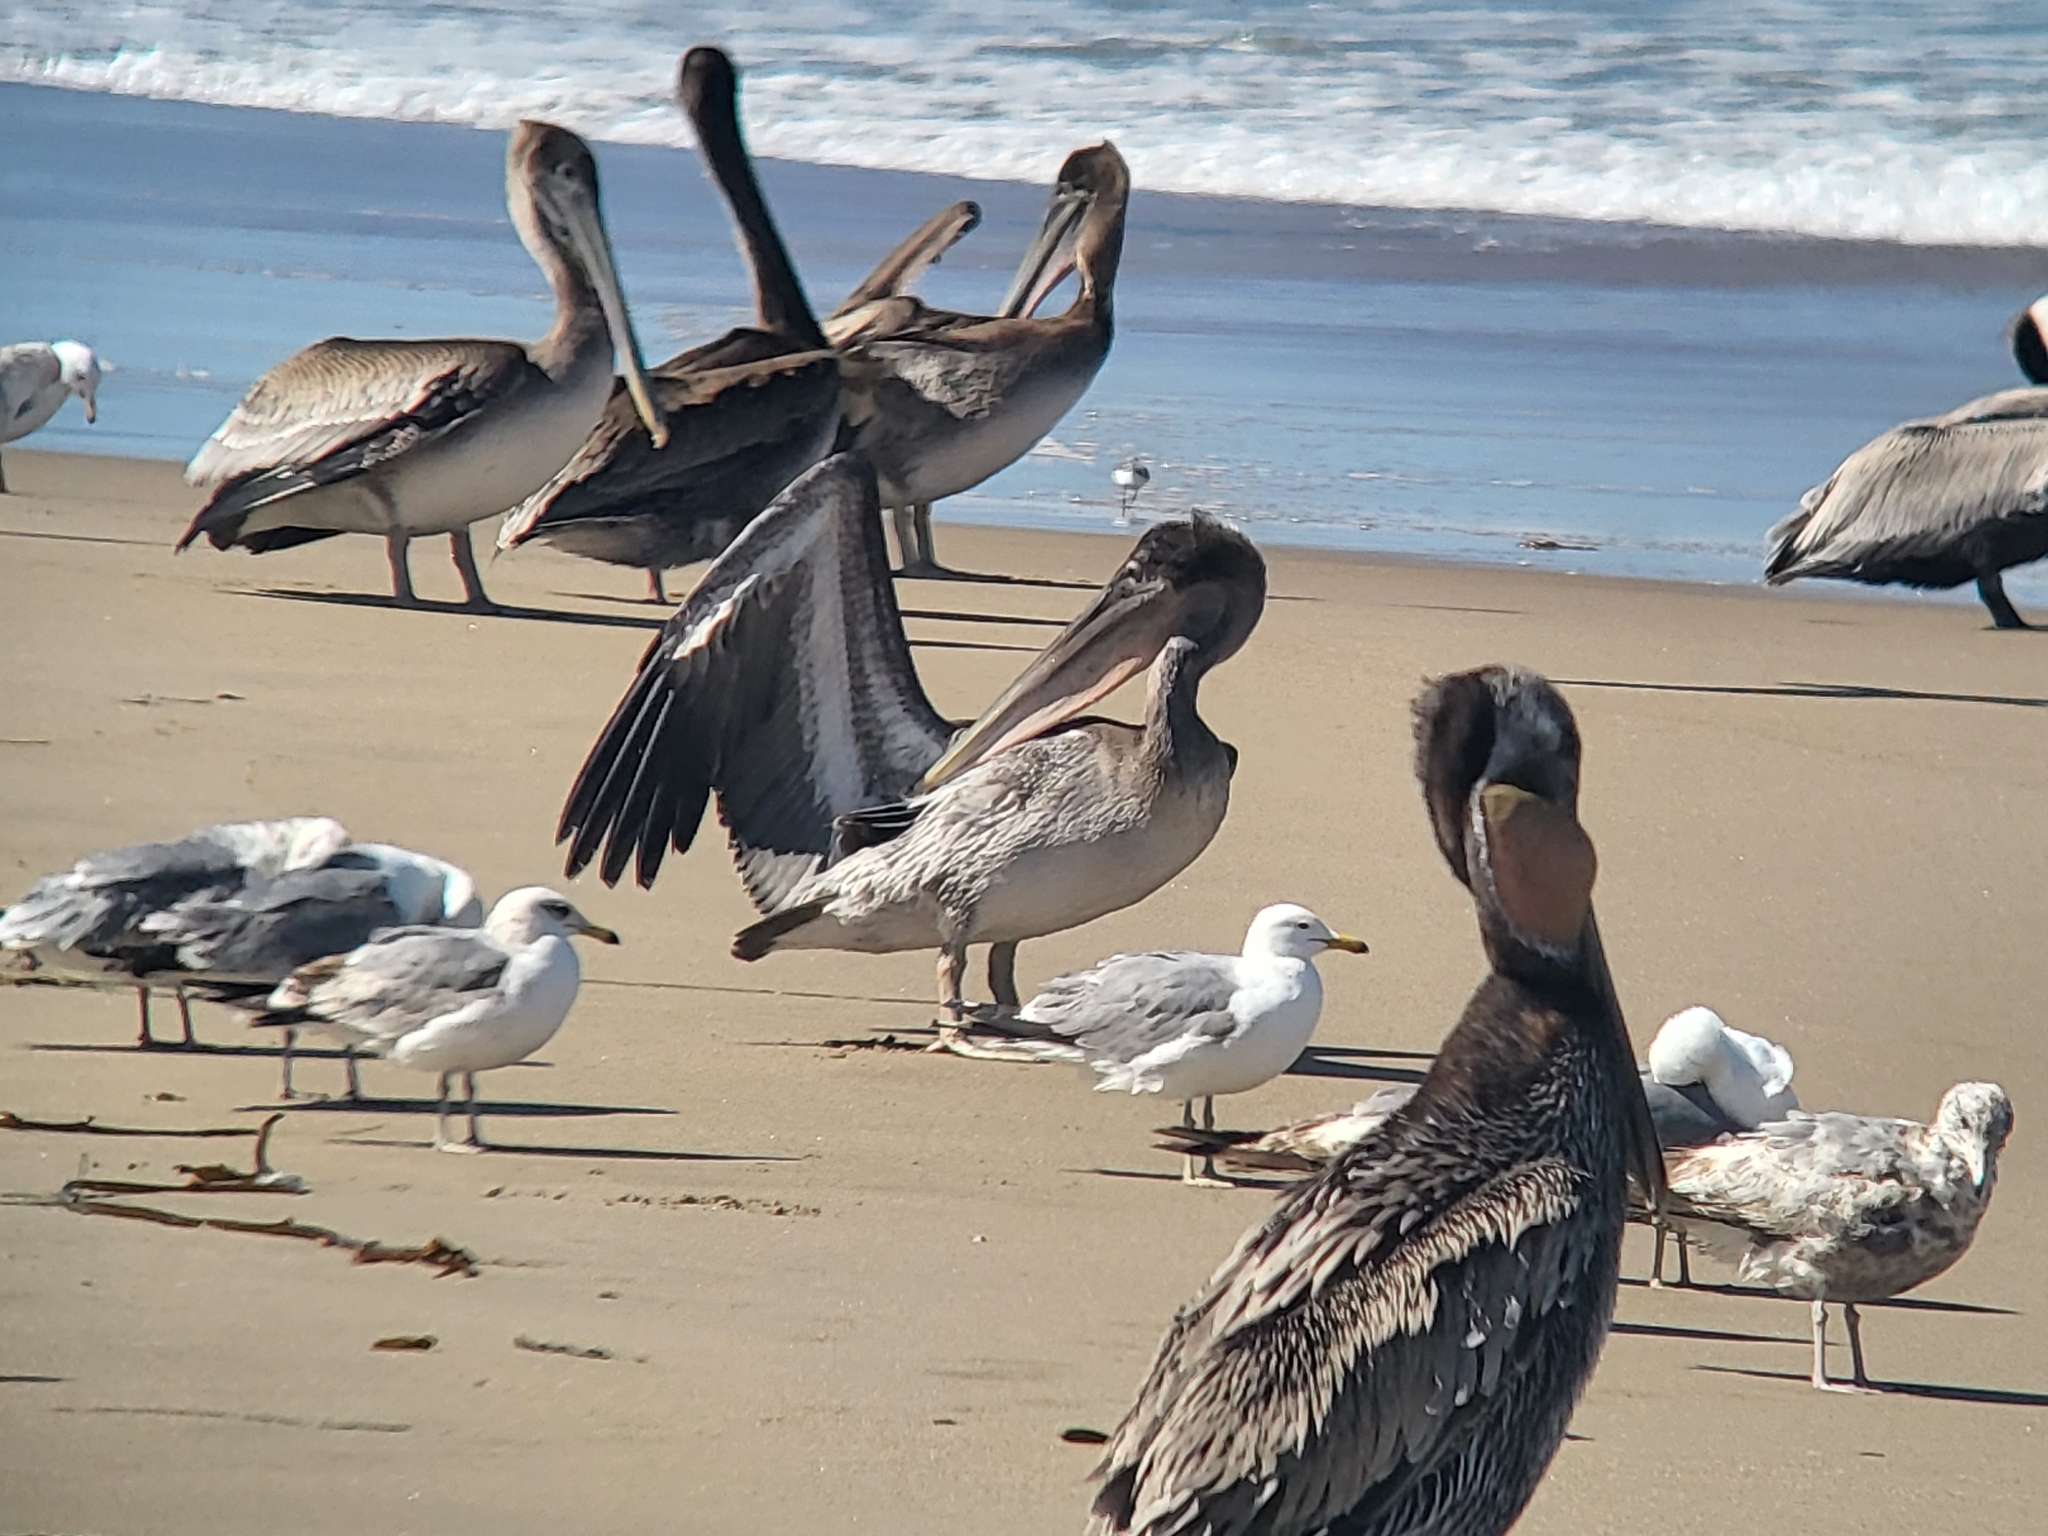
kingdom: Animalia
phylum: Chordata
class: Aves
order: Pelecaniformes
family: Pelecanidae
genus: Pelecanus
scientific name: Pelecanus occidentalis
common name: Brown pelican
